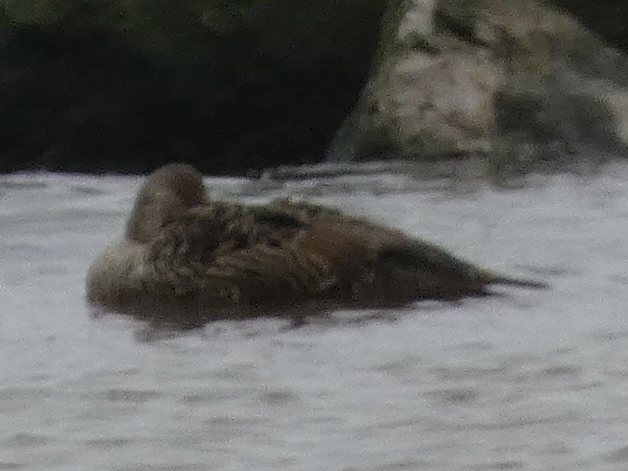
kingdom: Animalia
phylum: Chordata
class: Aves
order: Anseriformes
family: Anatidae
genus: Somateria
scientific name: Somateria mollissima
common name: Common eider
